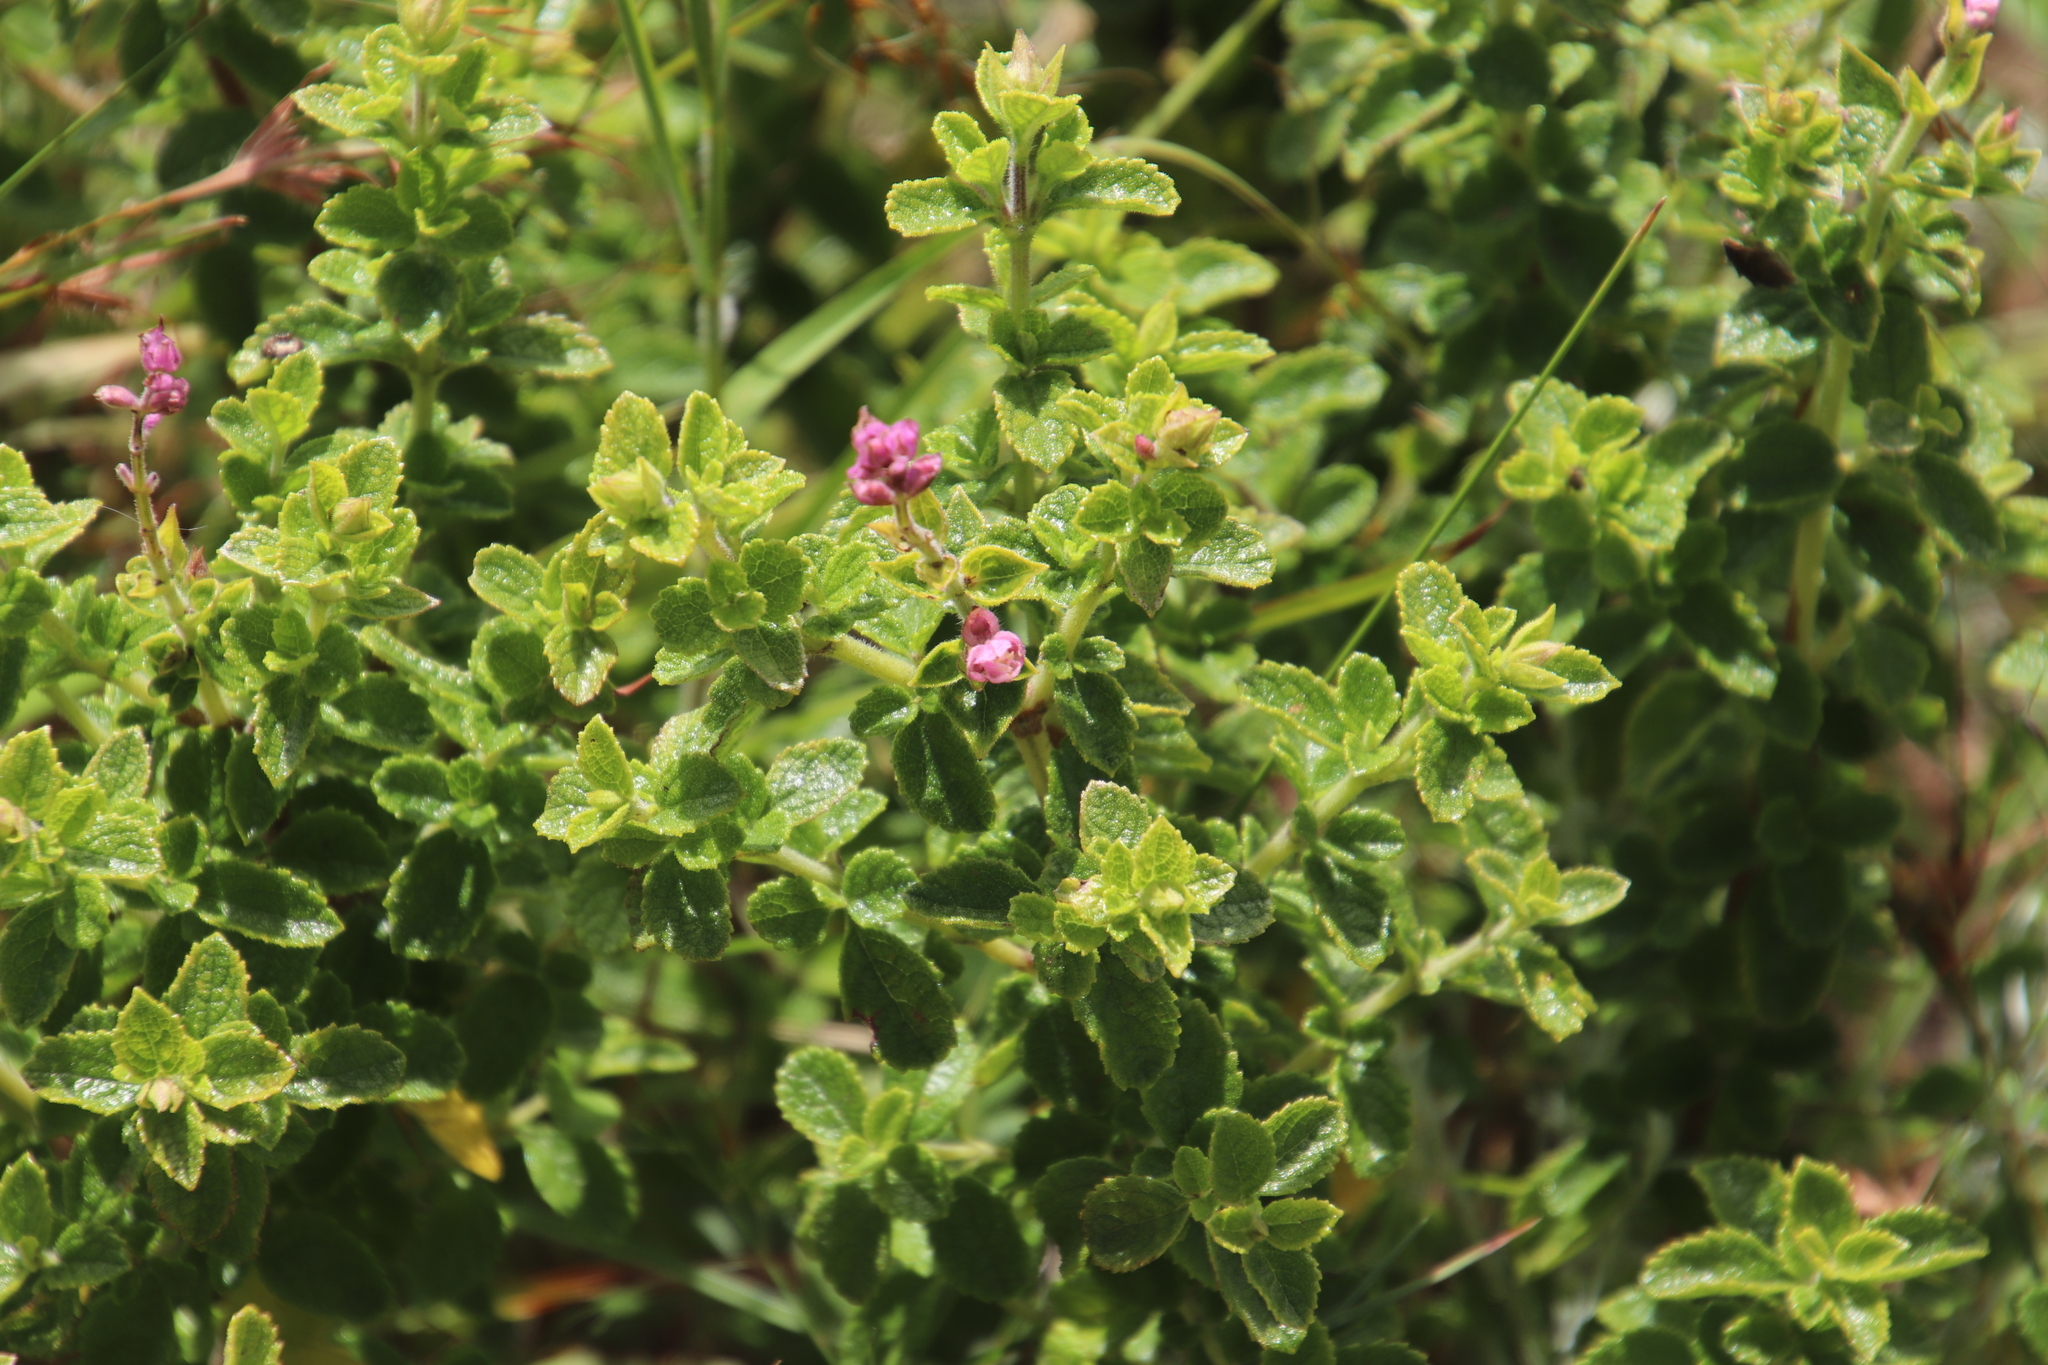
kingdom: Plantae
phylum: Tracheophyta
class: Magnoliopsida
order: Lamiales
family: Lamiaceae
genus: Syncolostemon
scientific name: Syncolostemon stalmansii
